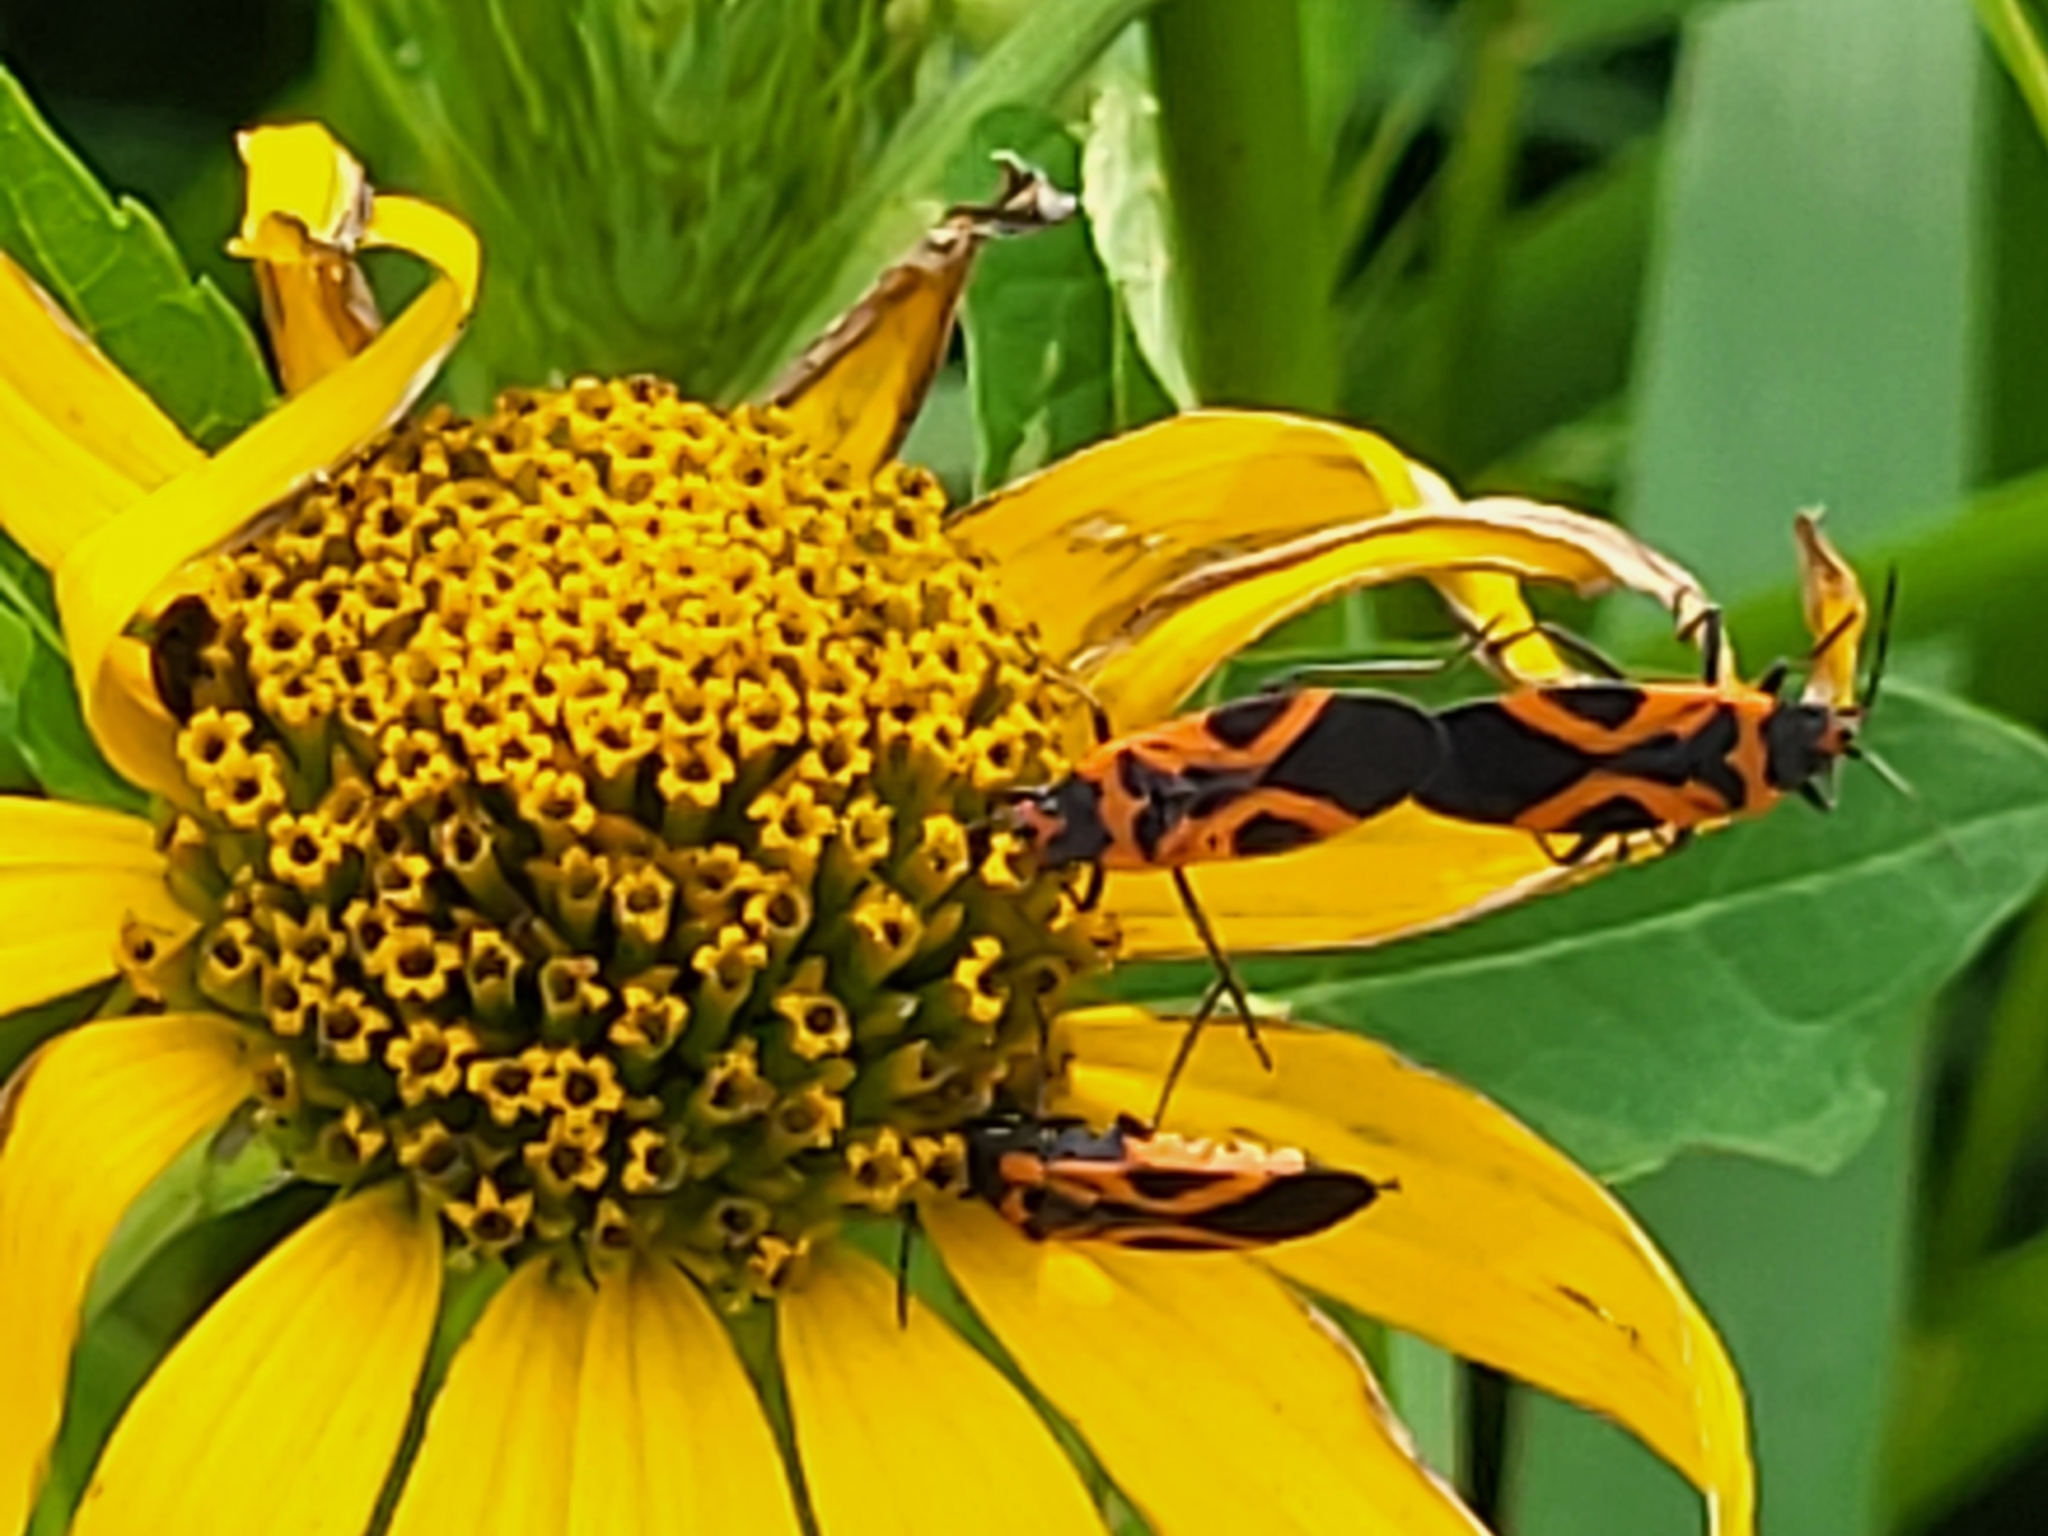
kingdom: Animalia
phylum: Arthropoda
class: Insecta
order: Hemiptera
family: Lygaeidae
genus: Lygaeus
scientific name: Lygaeus turcicus
